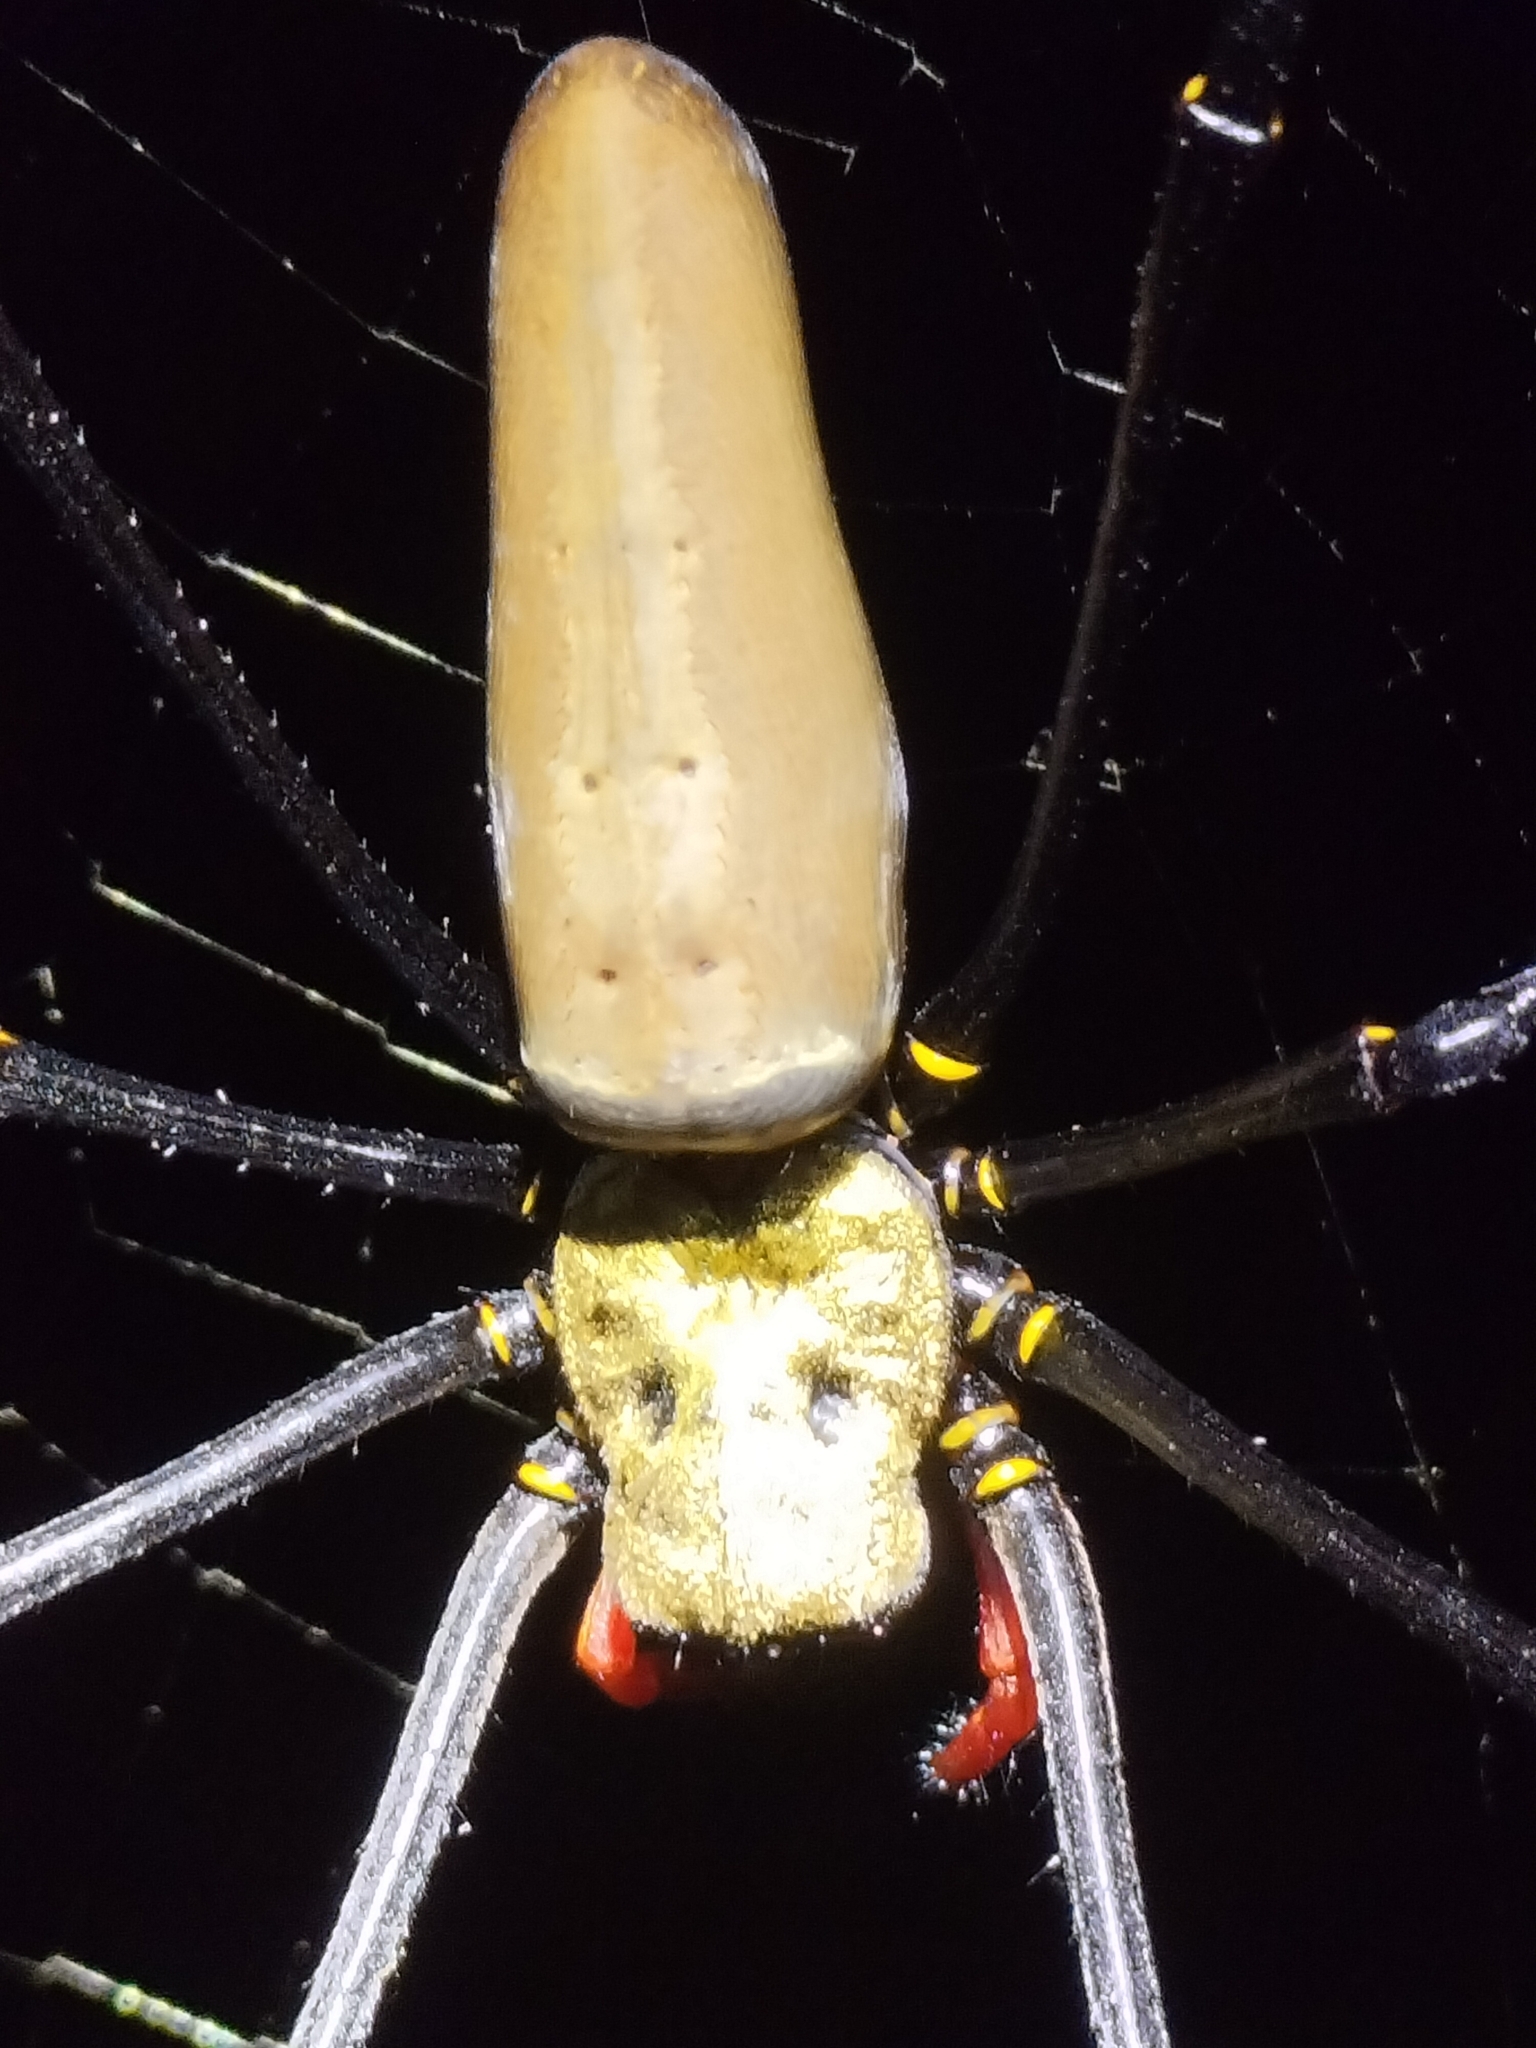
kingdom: Animalia
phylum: Arthropoda
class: Arachnida
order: Araneae
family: Araneidae
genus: Nephila
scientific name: Nephila pilipes
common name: Giant golden orb weaver
